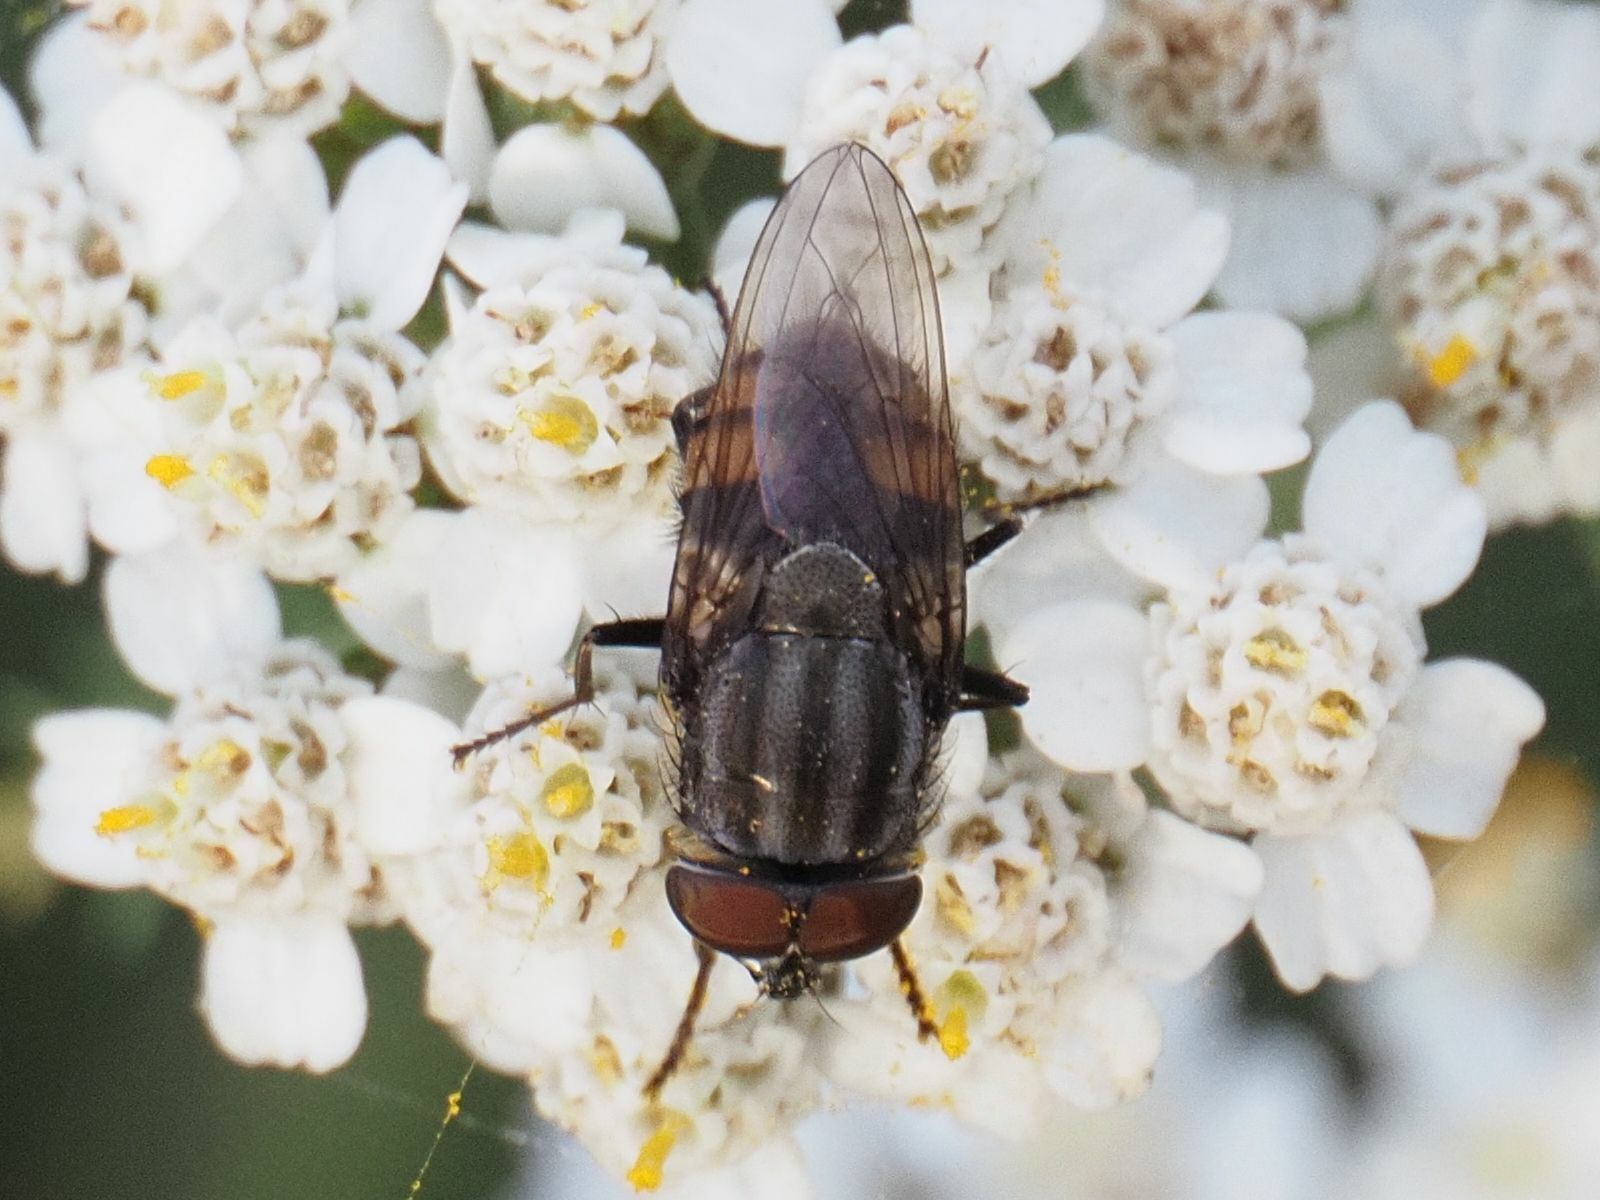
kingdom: Animalia
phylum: Arthropoda
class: Insecta
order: Diptera
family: Calliphoridae
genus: Stomorhina
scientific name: Stomorhina lunata
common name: Locust blowfly
